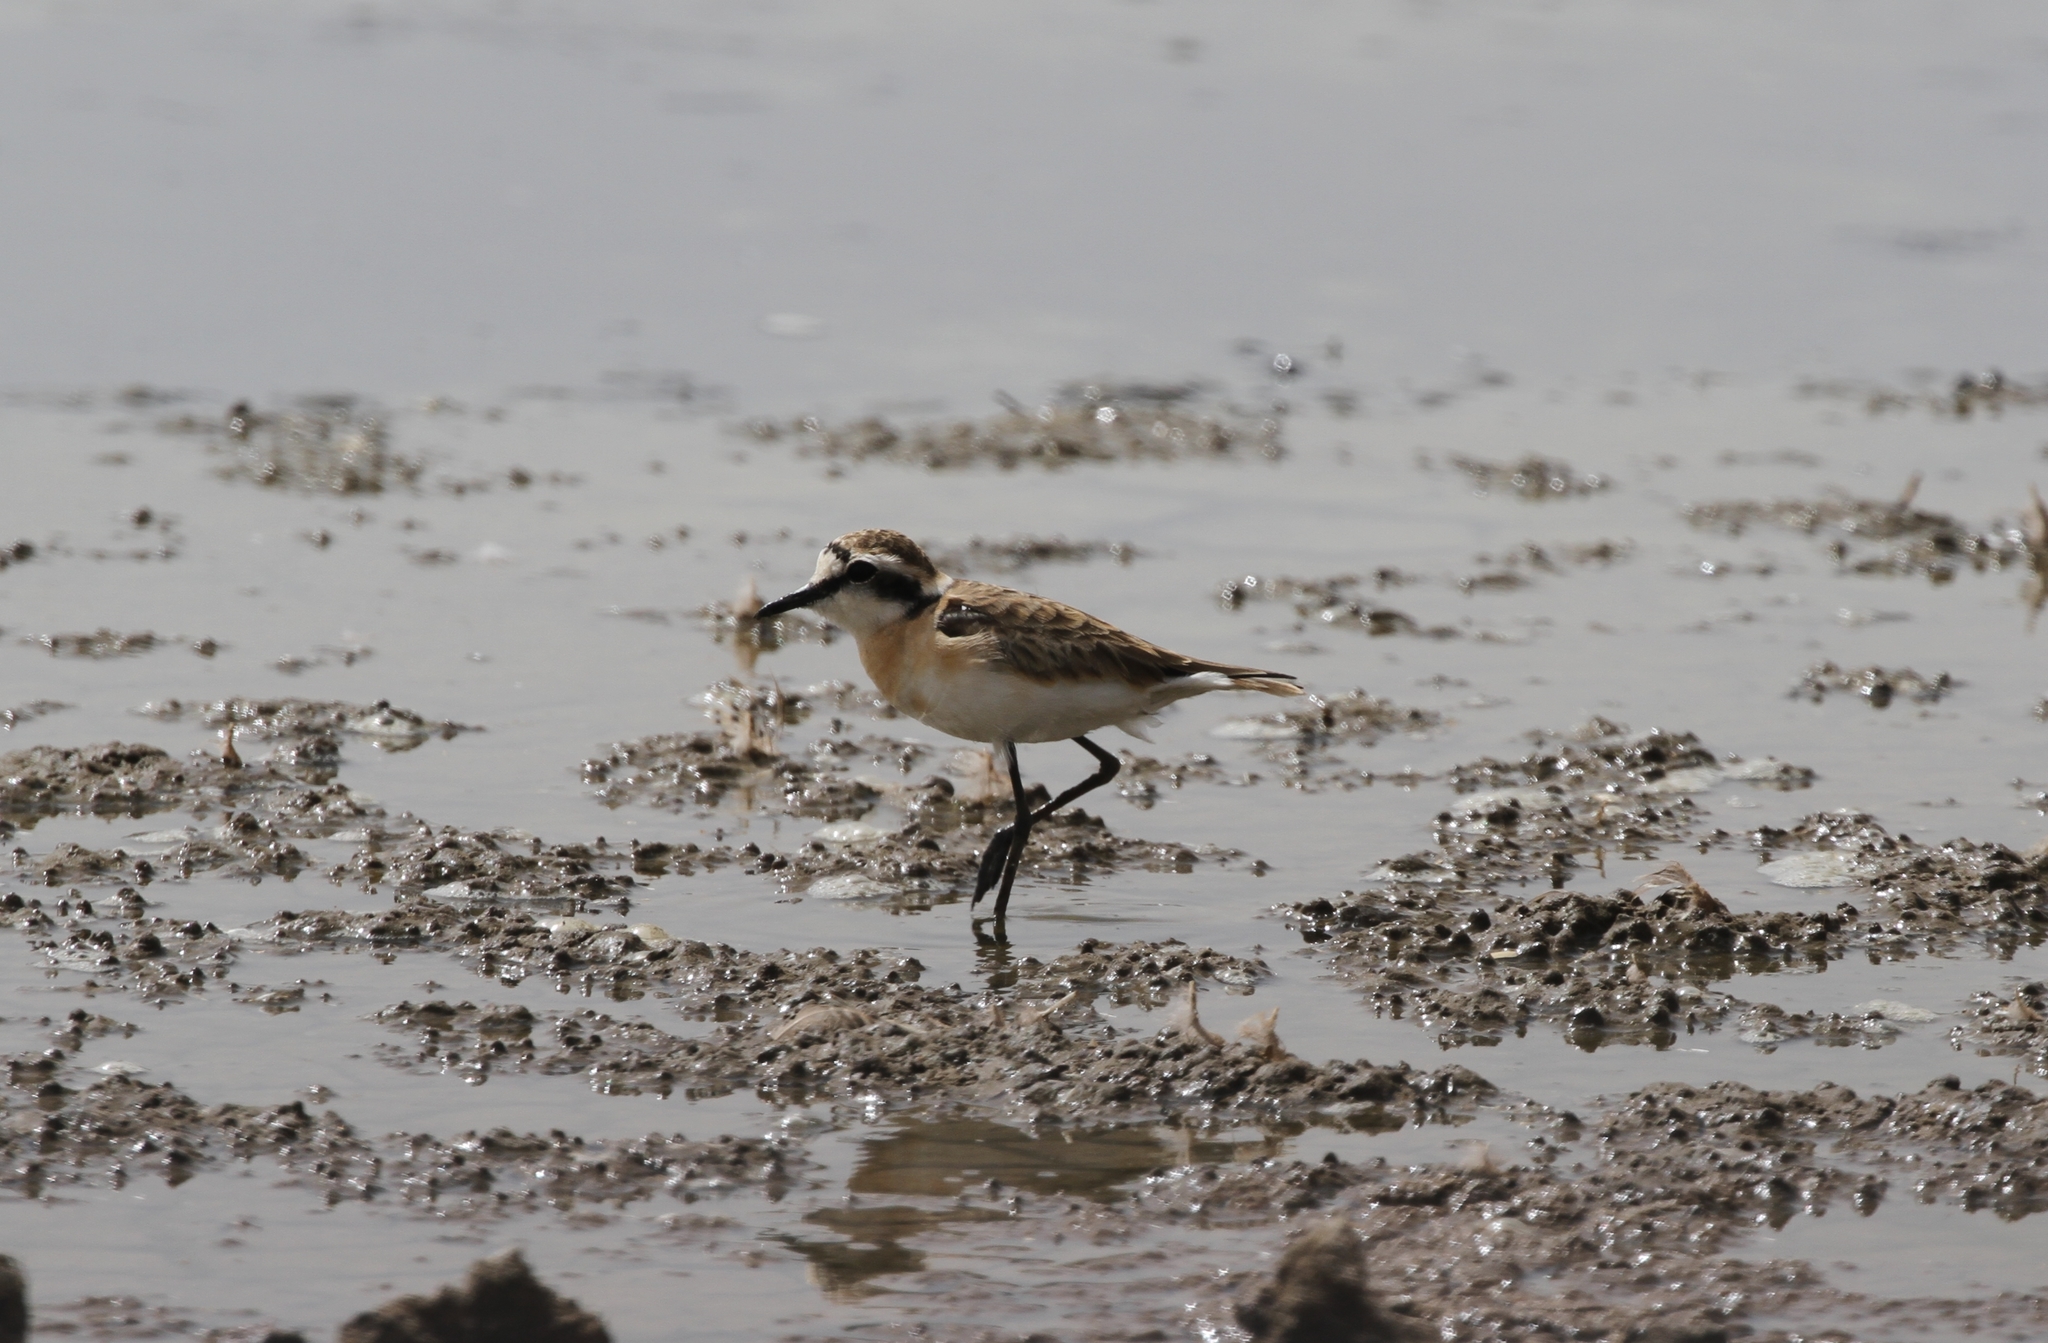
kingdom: Animalia
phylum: Chordata
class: Aves
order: Charadriiformes
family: Charadriidae
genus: Anarhynchus
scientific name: Anarhynchus
